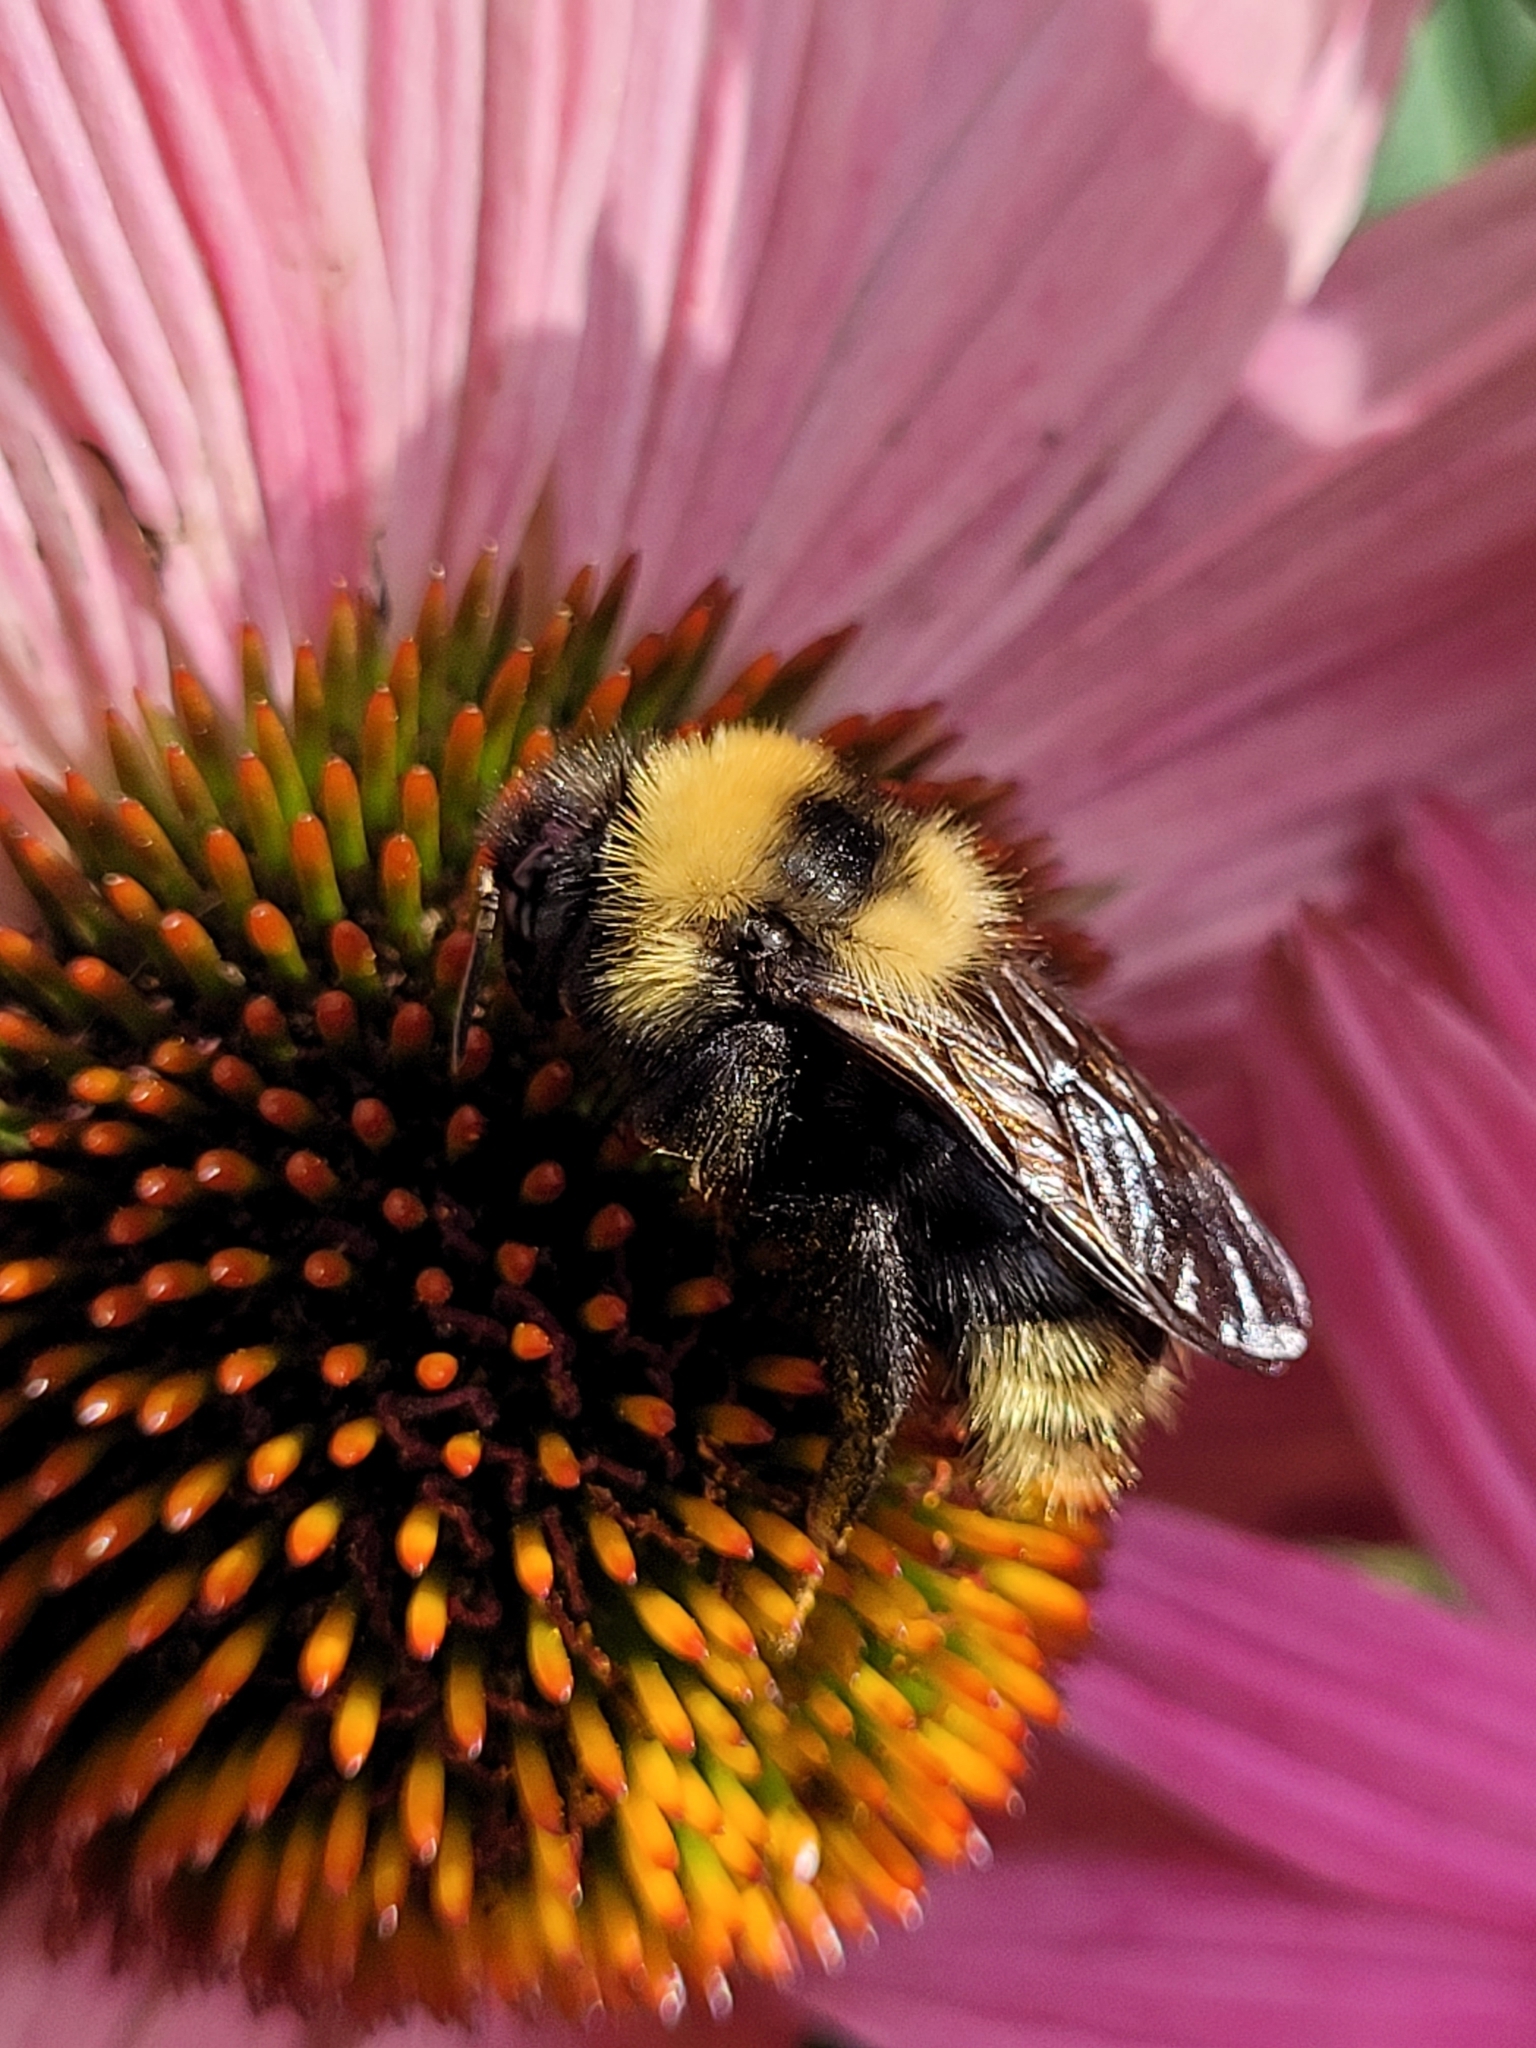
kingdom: Animalia
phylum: Arthropoda
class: Insecta
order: Hymenoptera
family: Apidae
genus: Bombus
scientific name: Bombus campestris
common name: Field cuckoo-bee
